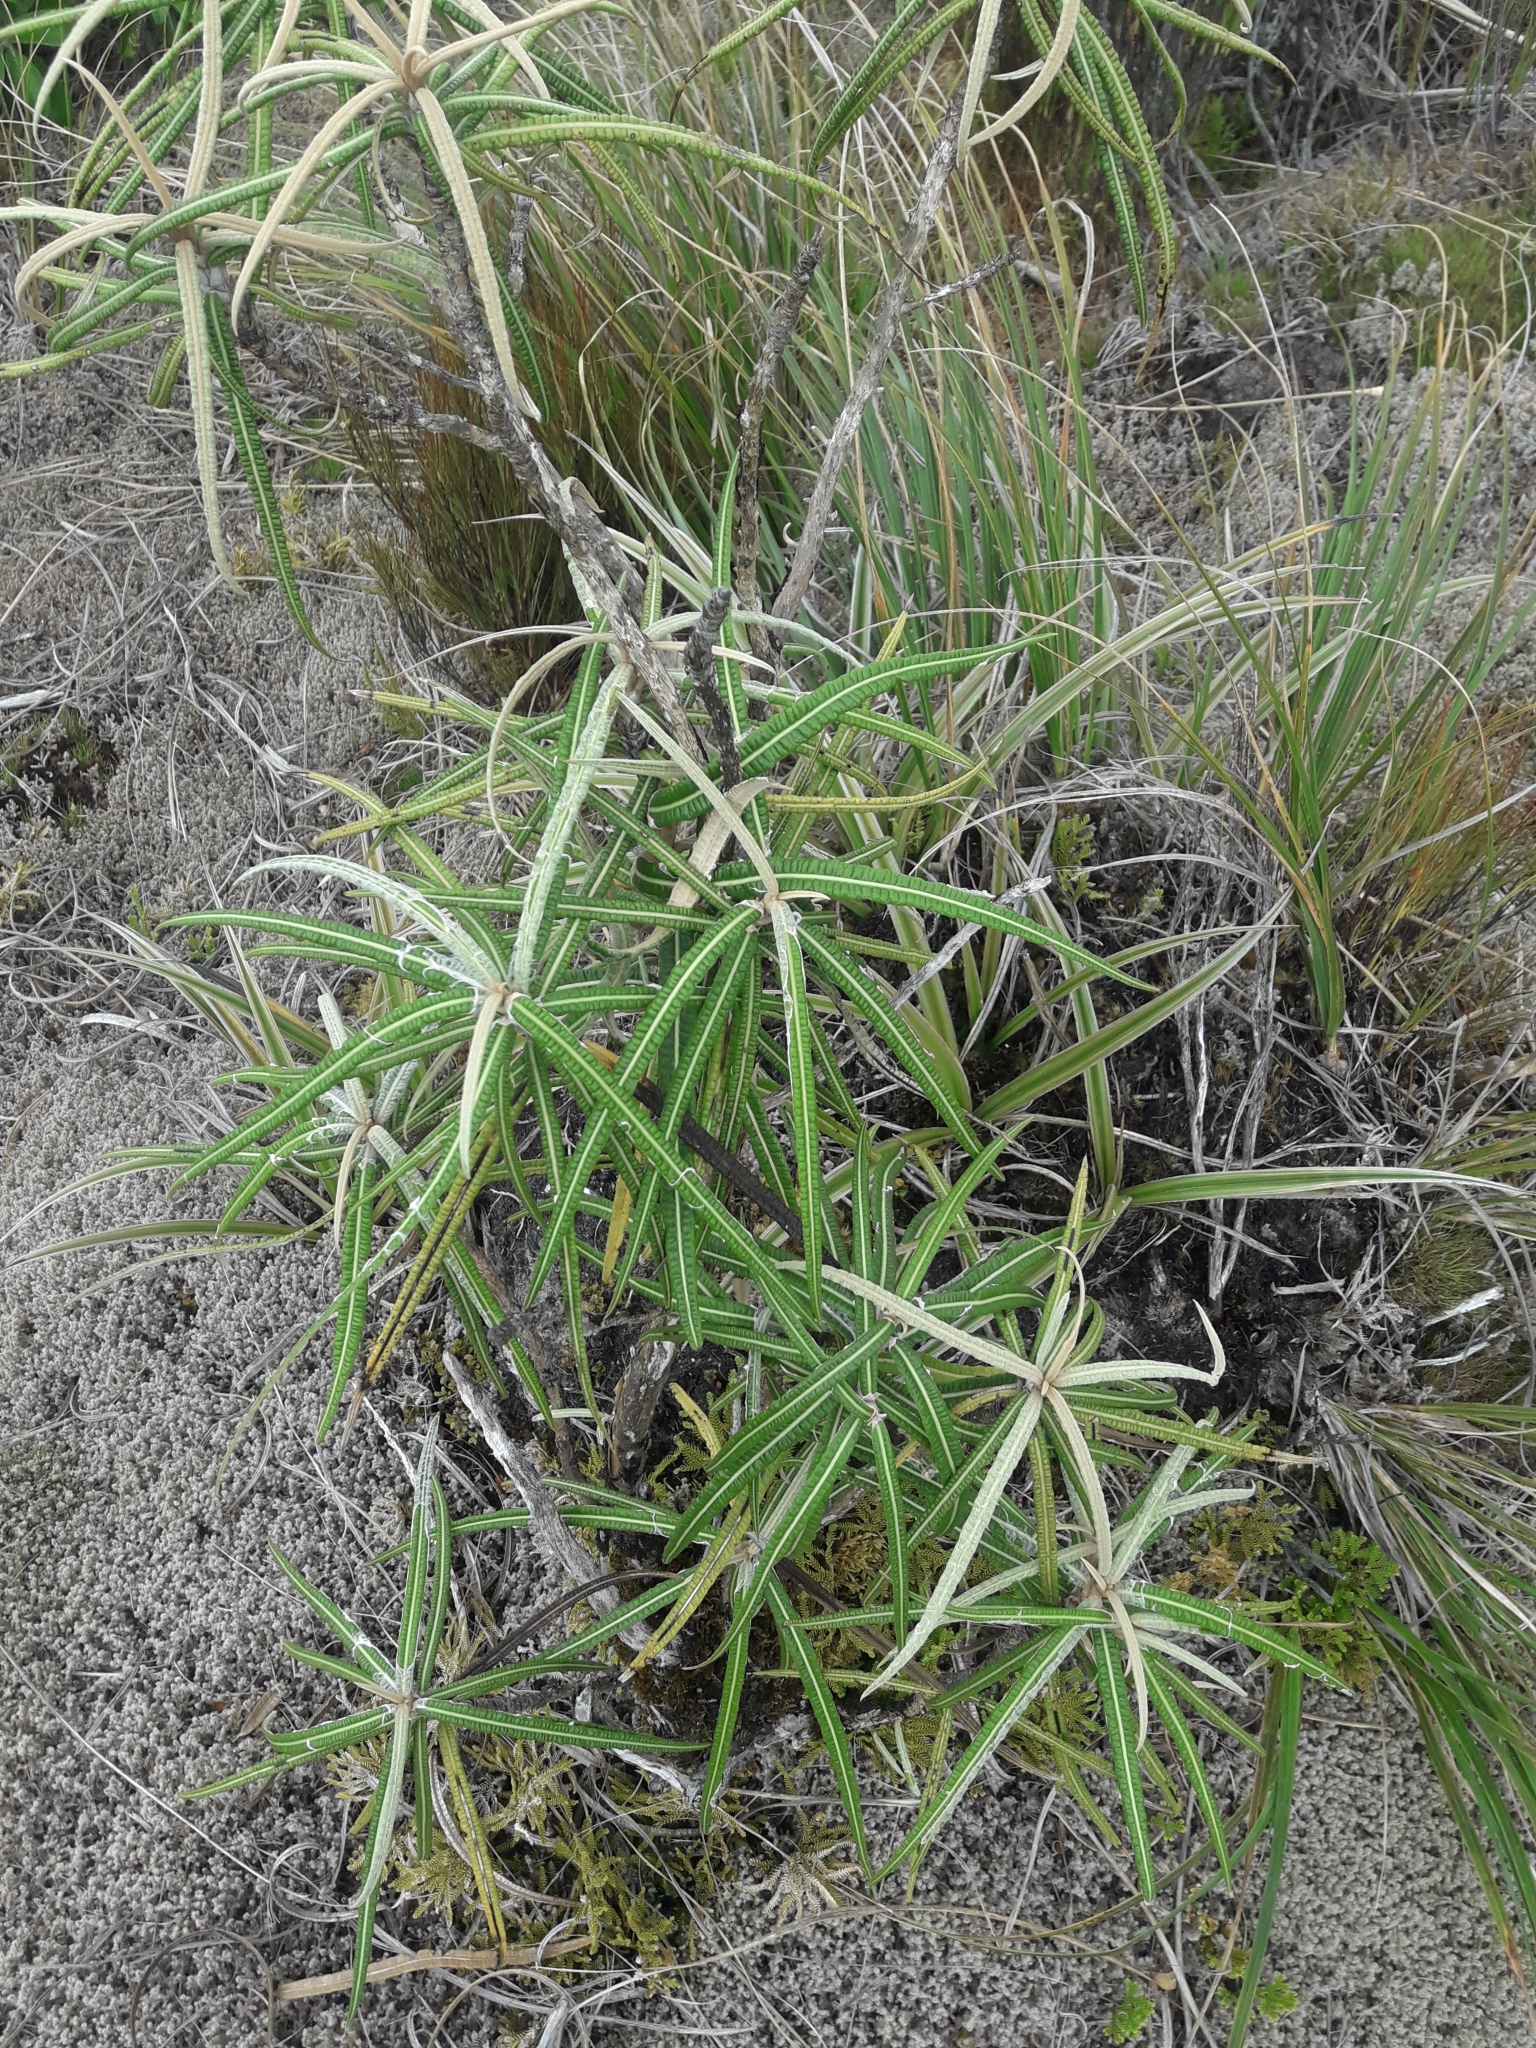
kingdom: Plantae
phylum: Tracheophyta
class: Magnoliopsida
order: Asterales
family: Asteraceae
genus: Olearia
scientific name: Olearia lacunosa
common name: Lancewood tree daisy
